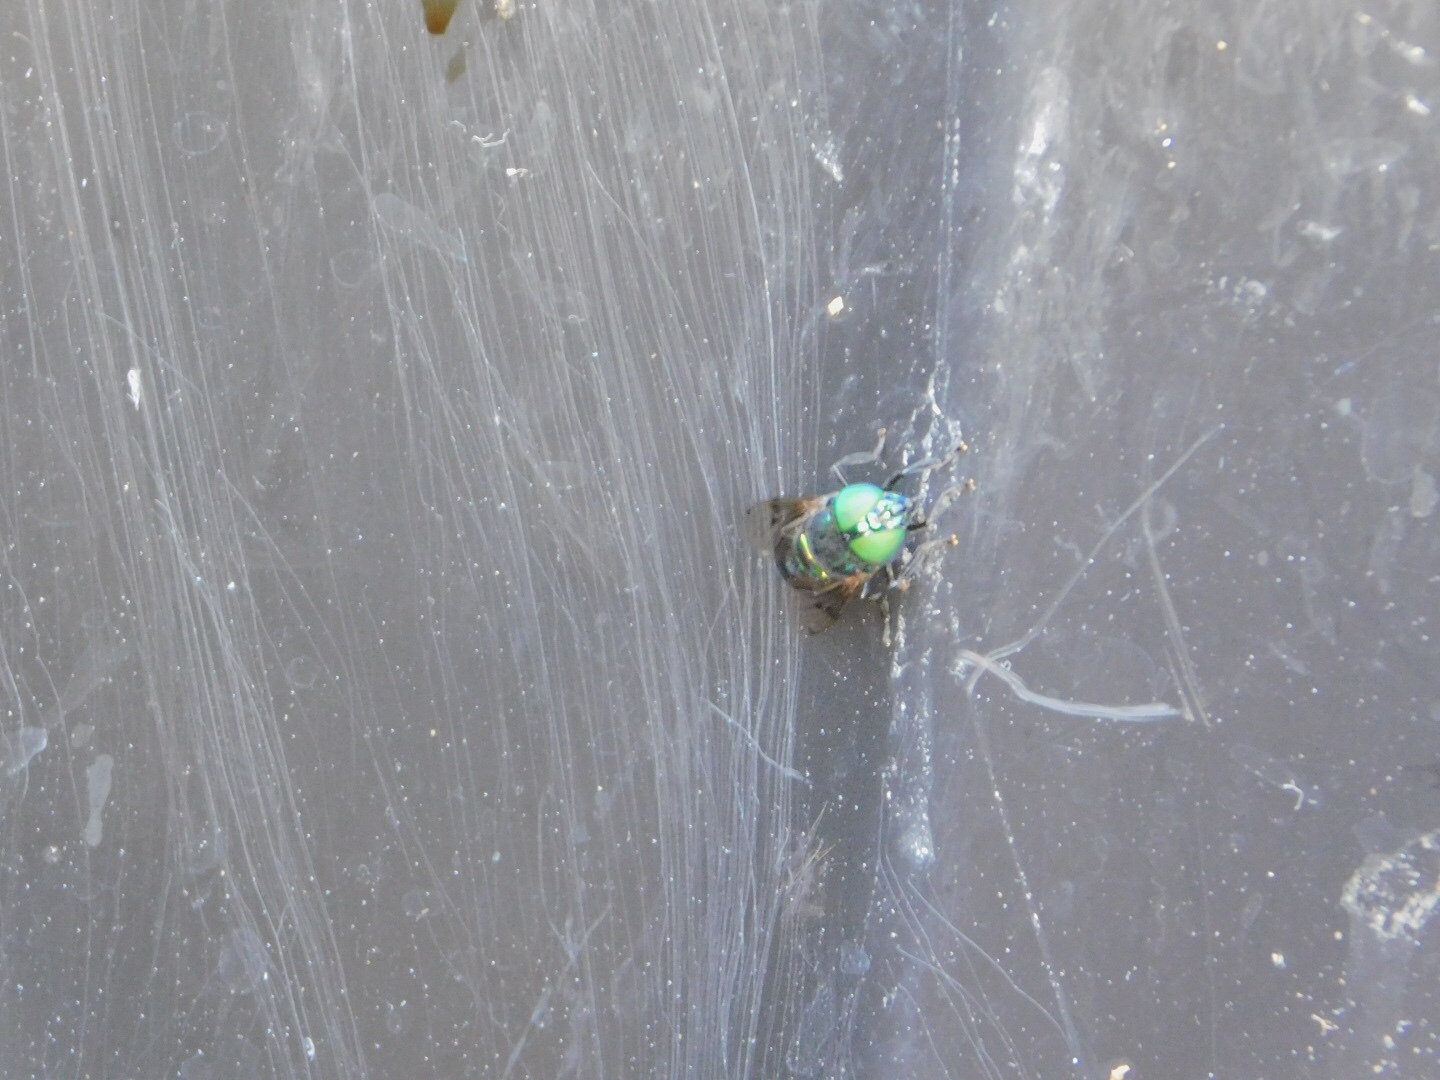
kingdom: Animalia
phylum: Arthropoda
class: Insecta
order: Diptera
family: Syrphidae
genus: Ornidia
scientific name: Ornidia obesa
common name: Syrphid fly
